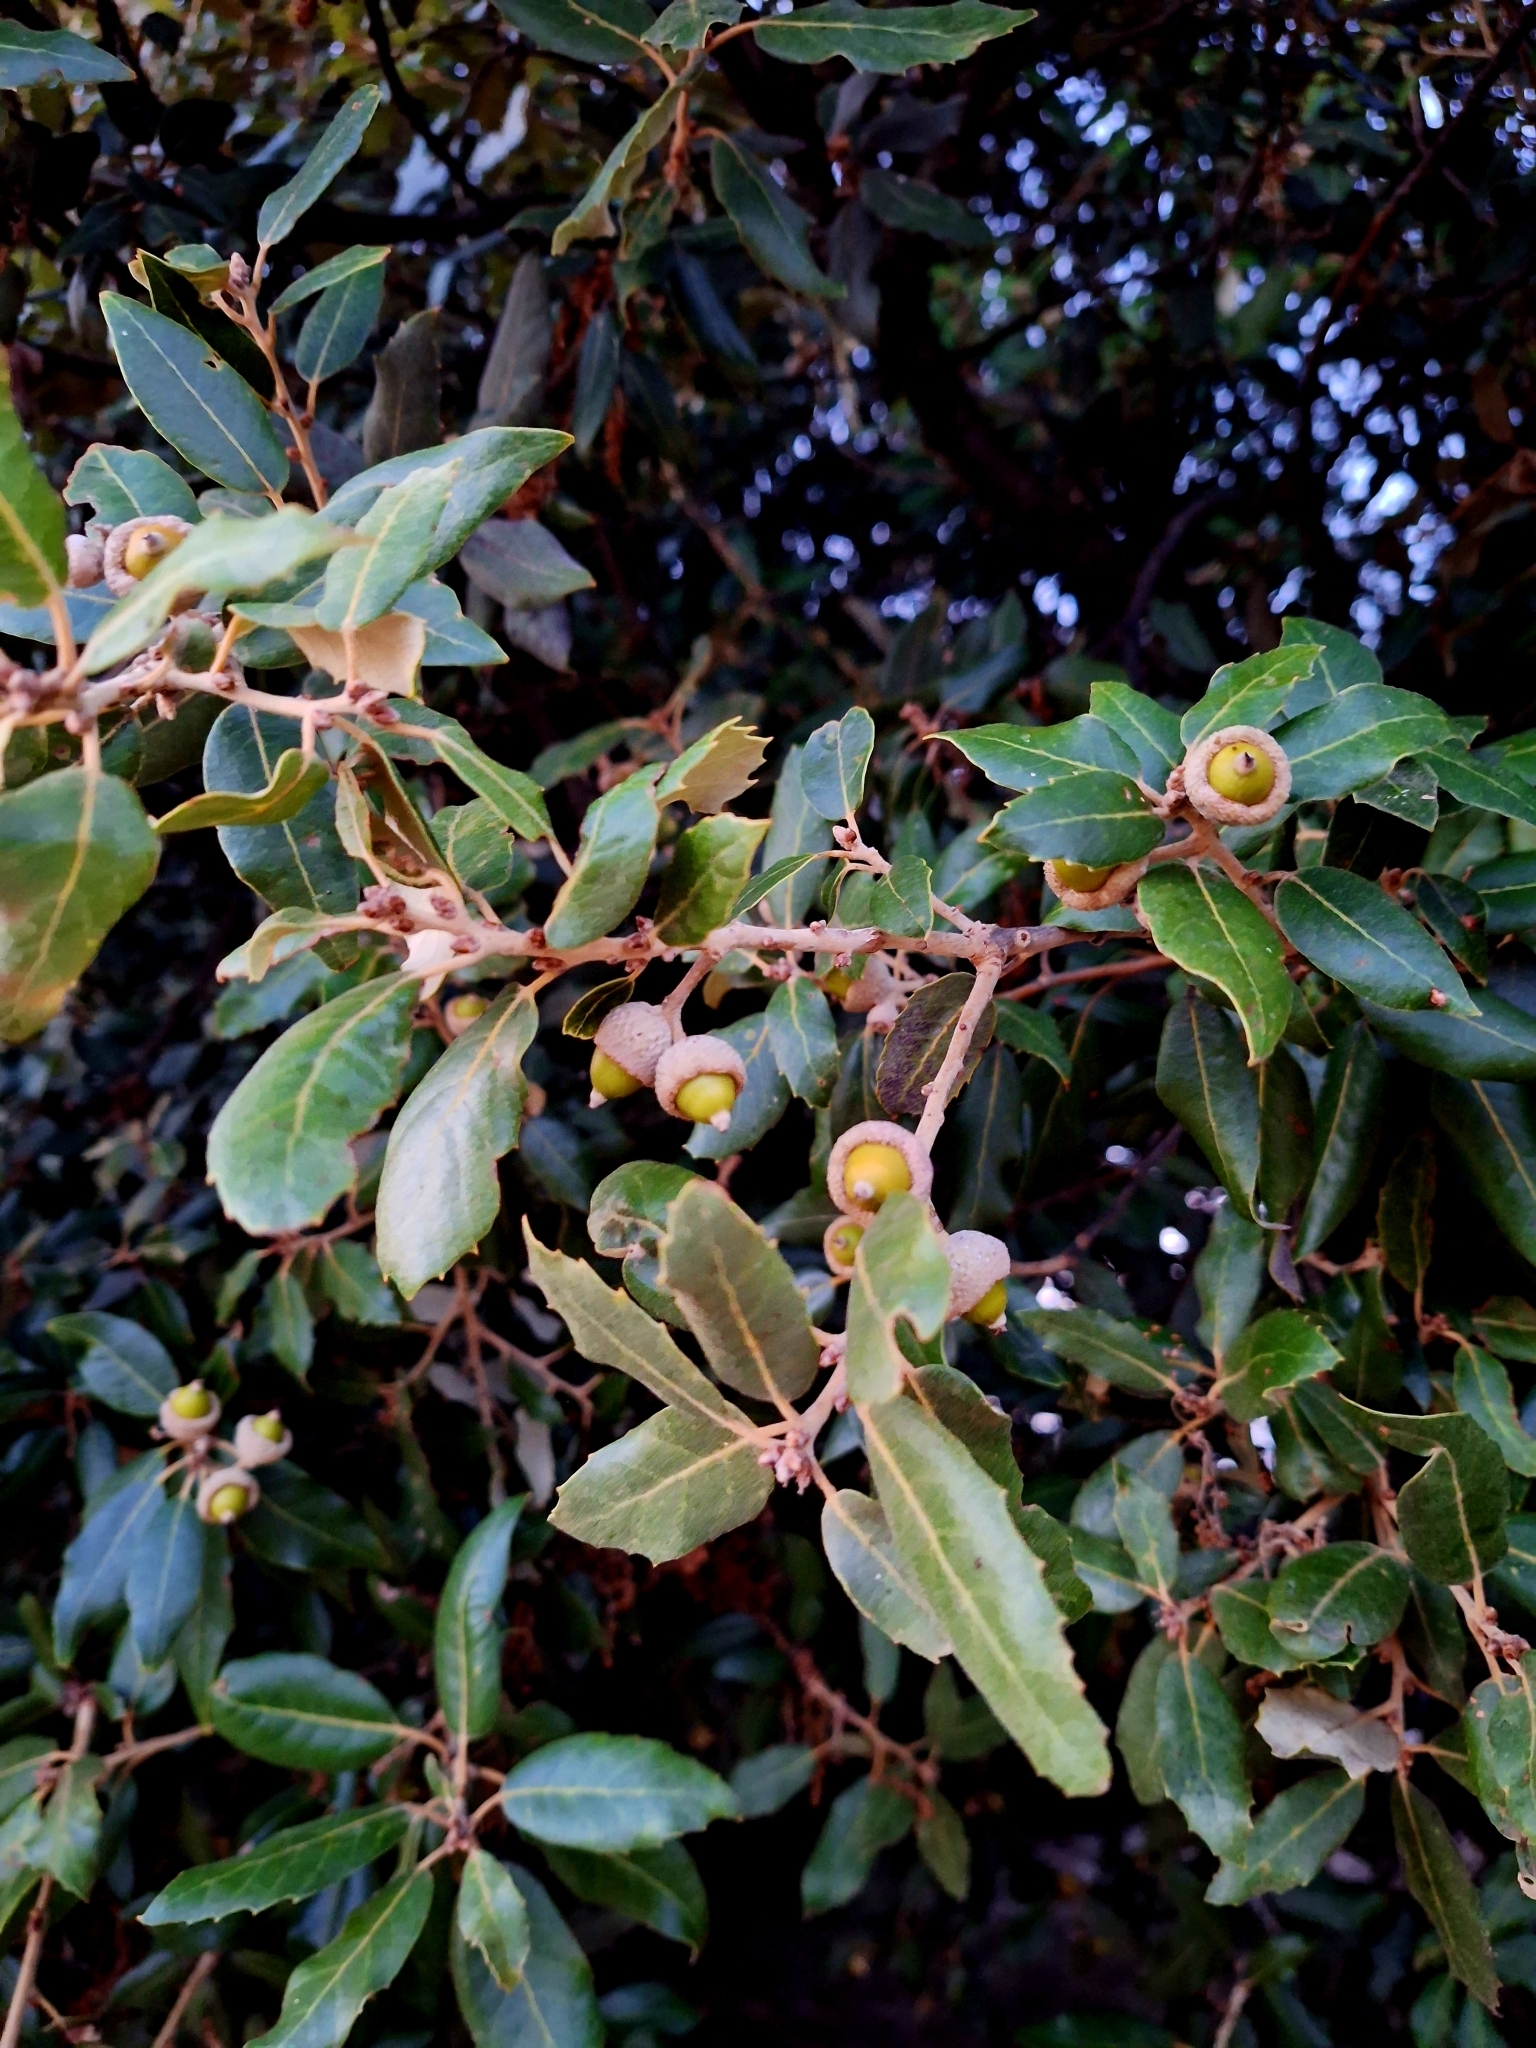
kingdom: Plantae
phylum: Tracheophyta
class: Magnoliopsida
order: Fagales
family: Fagaceae
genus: Quercus
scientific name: Quercus ilex
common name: Evergreen oak
